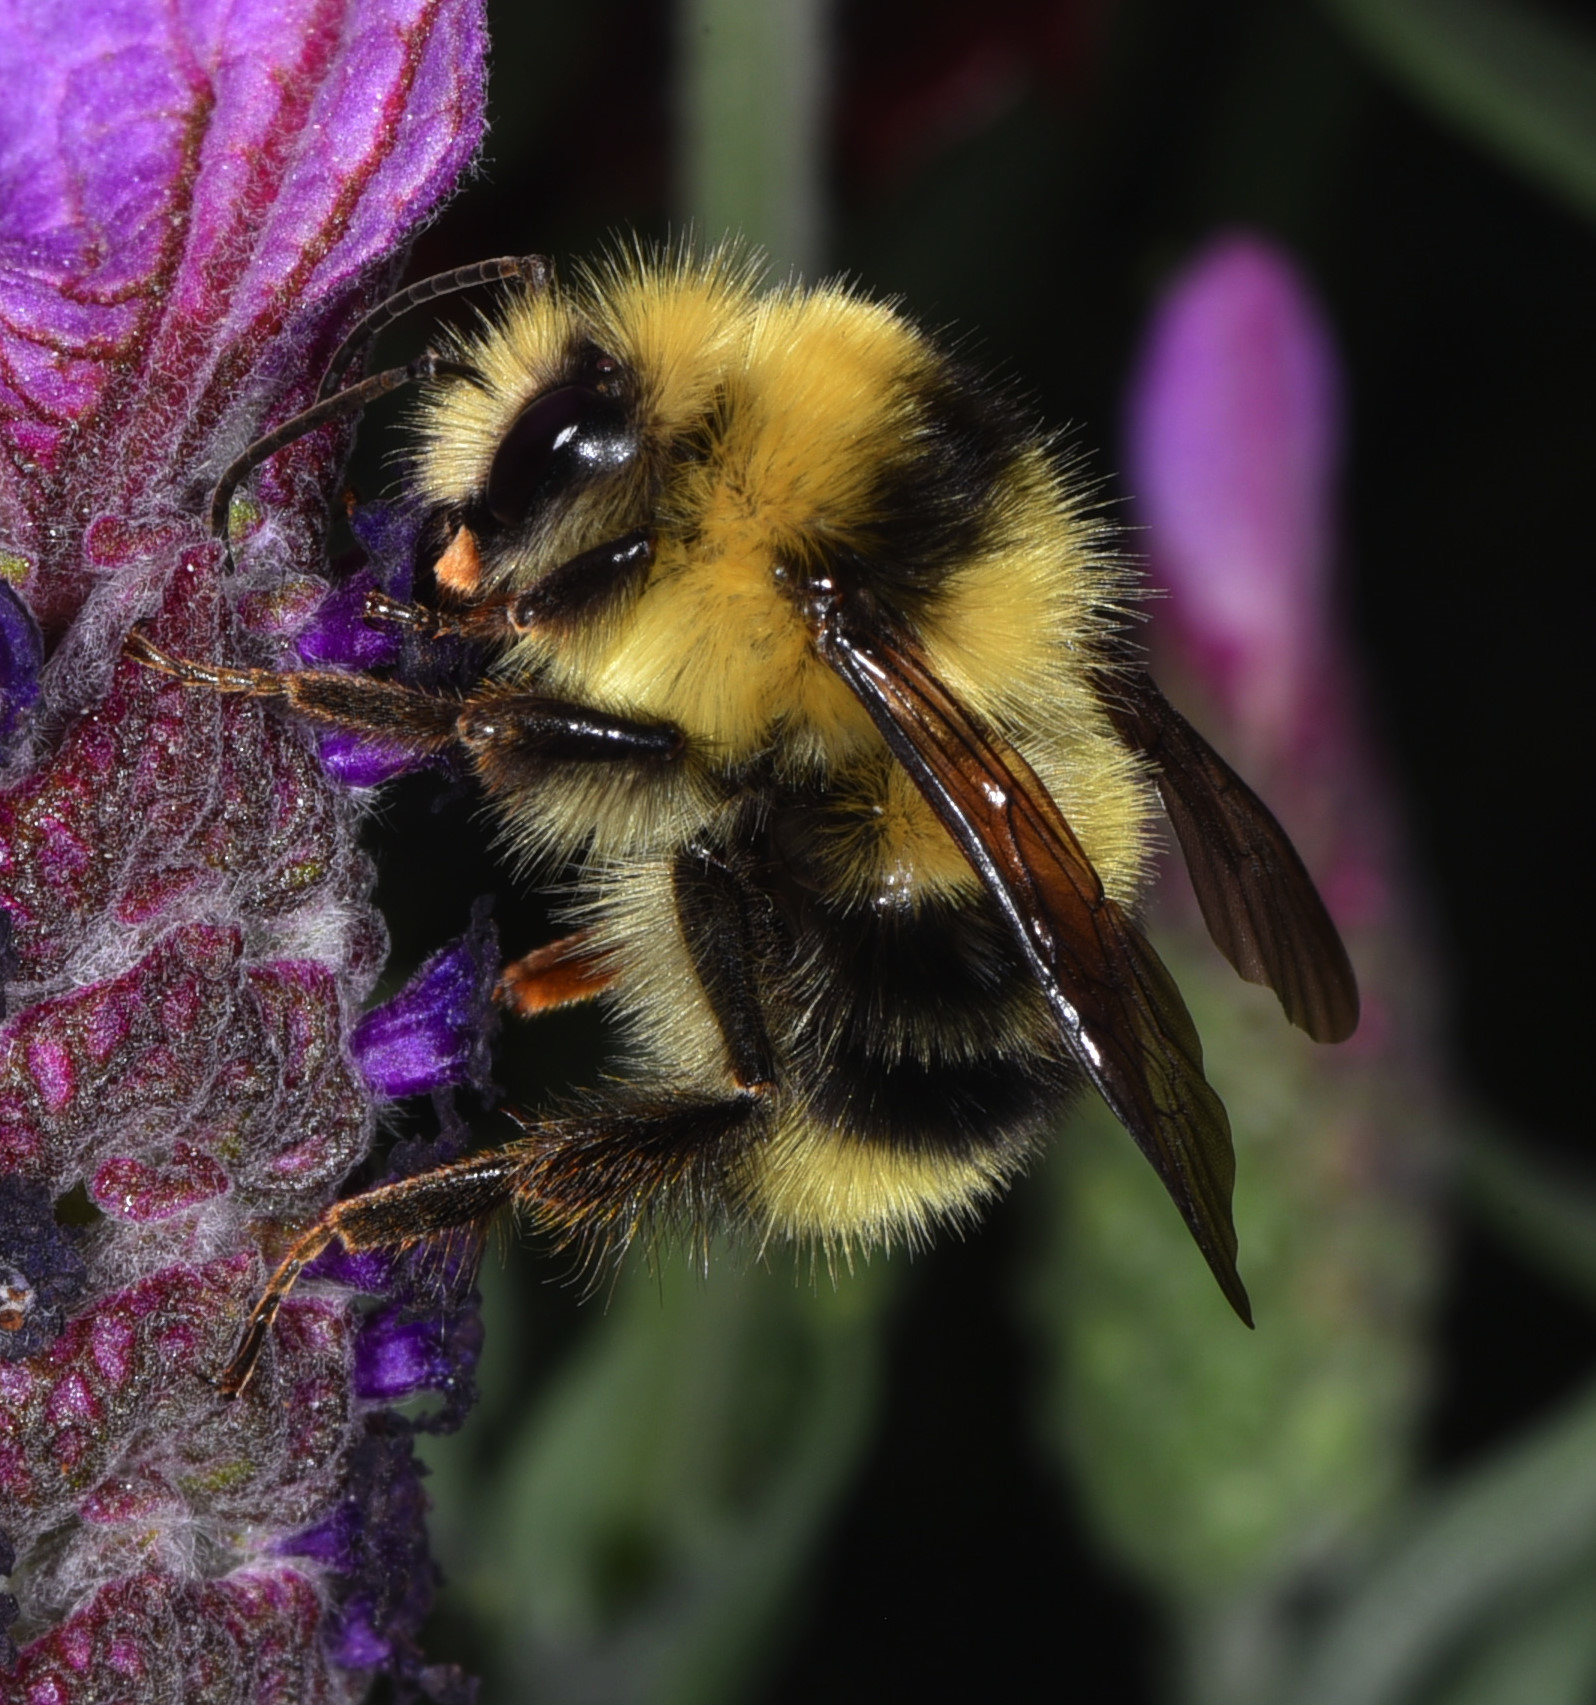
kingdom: Animalia
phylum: Arthropoda
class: Insecta
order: Hymenoptera
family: Apidae
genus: Bombus
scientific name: Bombus melanopygus
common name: Black tail bumble bee
